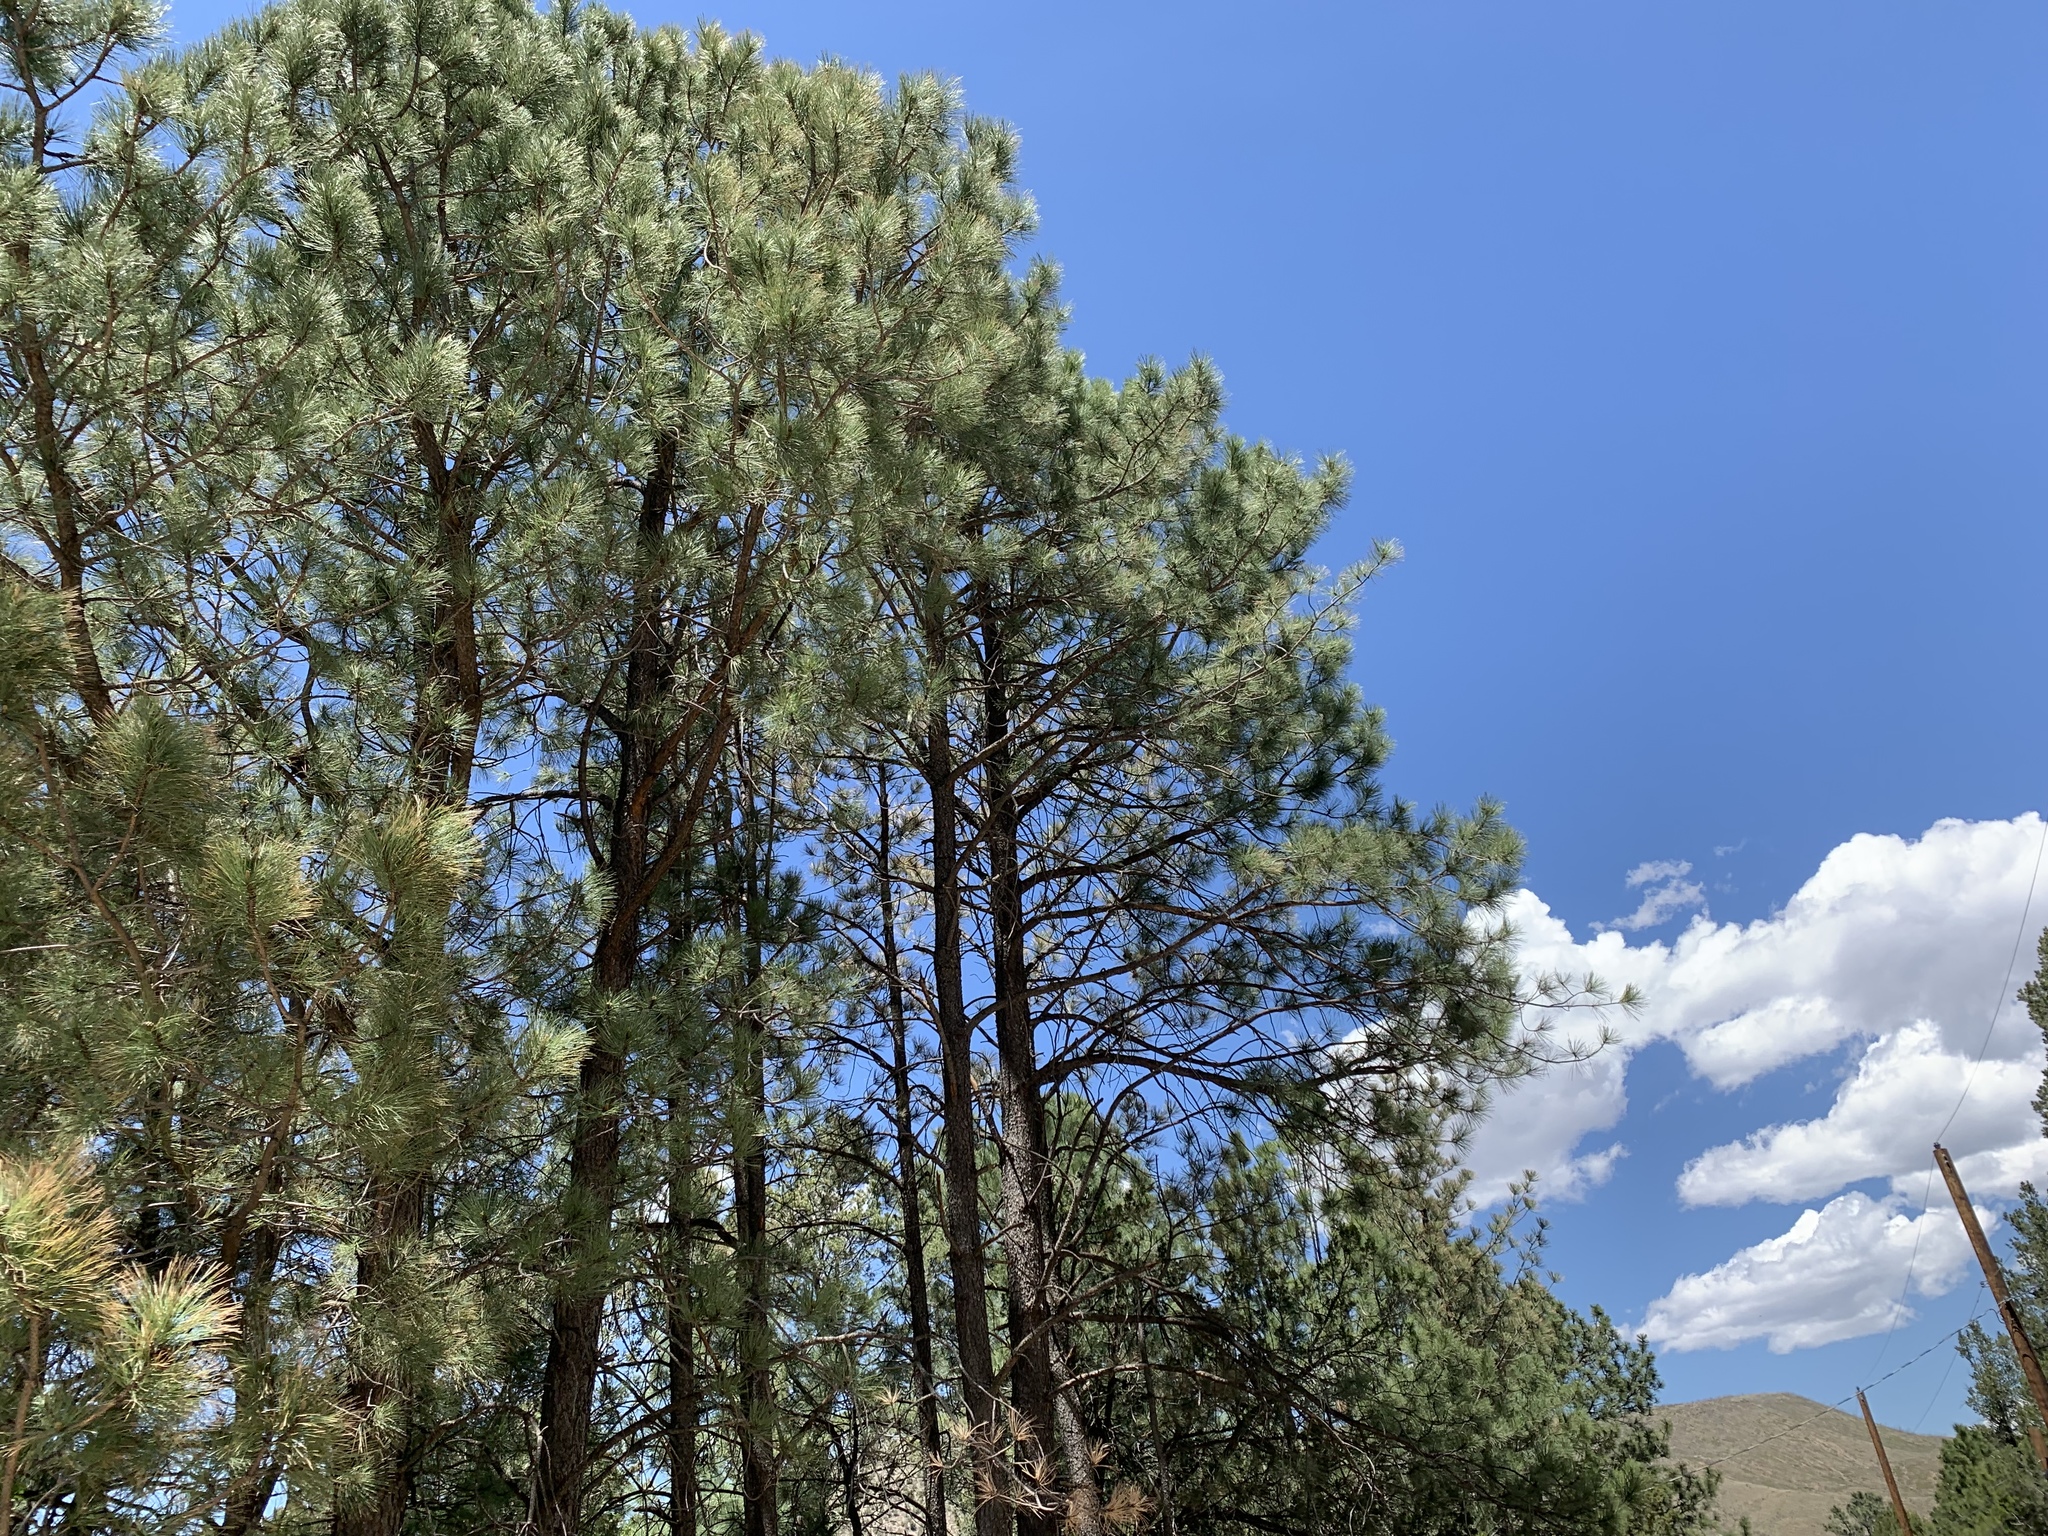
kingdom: Plantae
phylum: Tracheophyta
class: Pinopsida
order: Pinales
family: Pinaceae
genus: Pinus
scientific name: Pinus ponderosa
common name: Western yellow-pine
